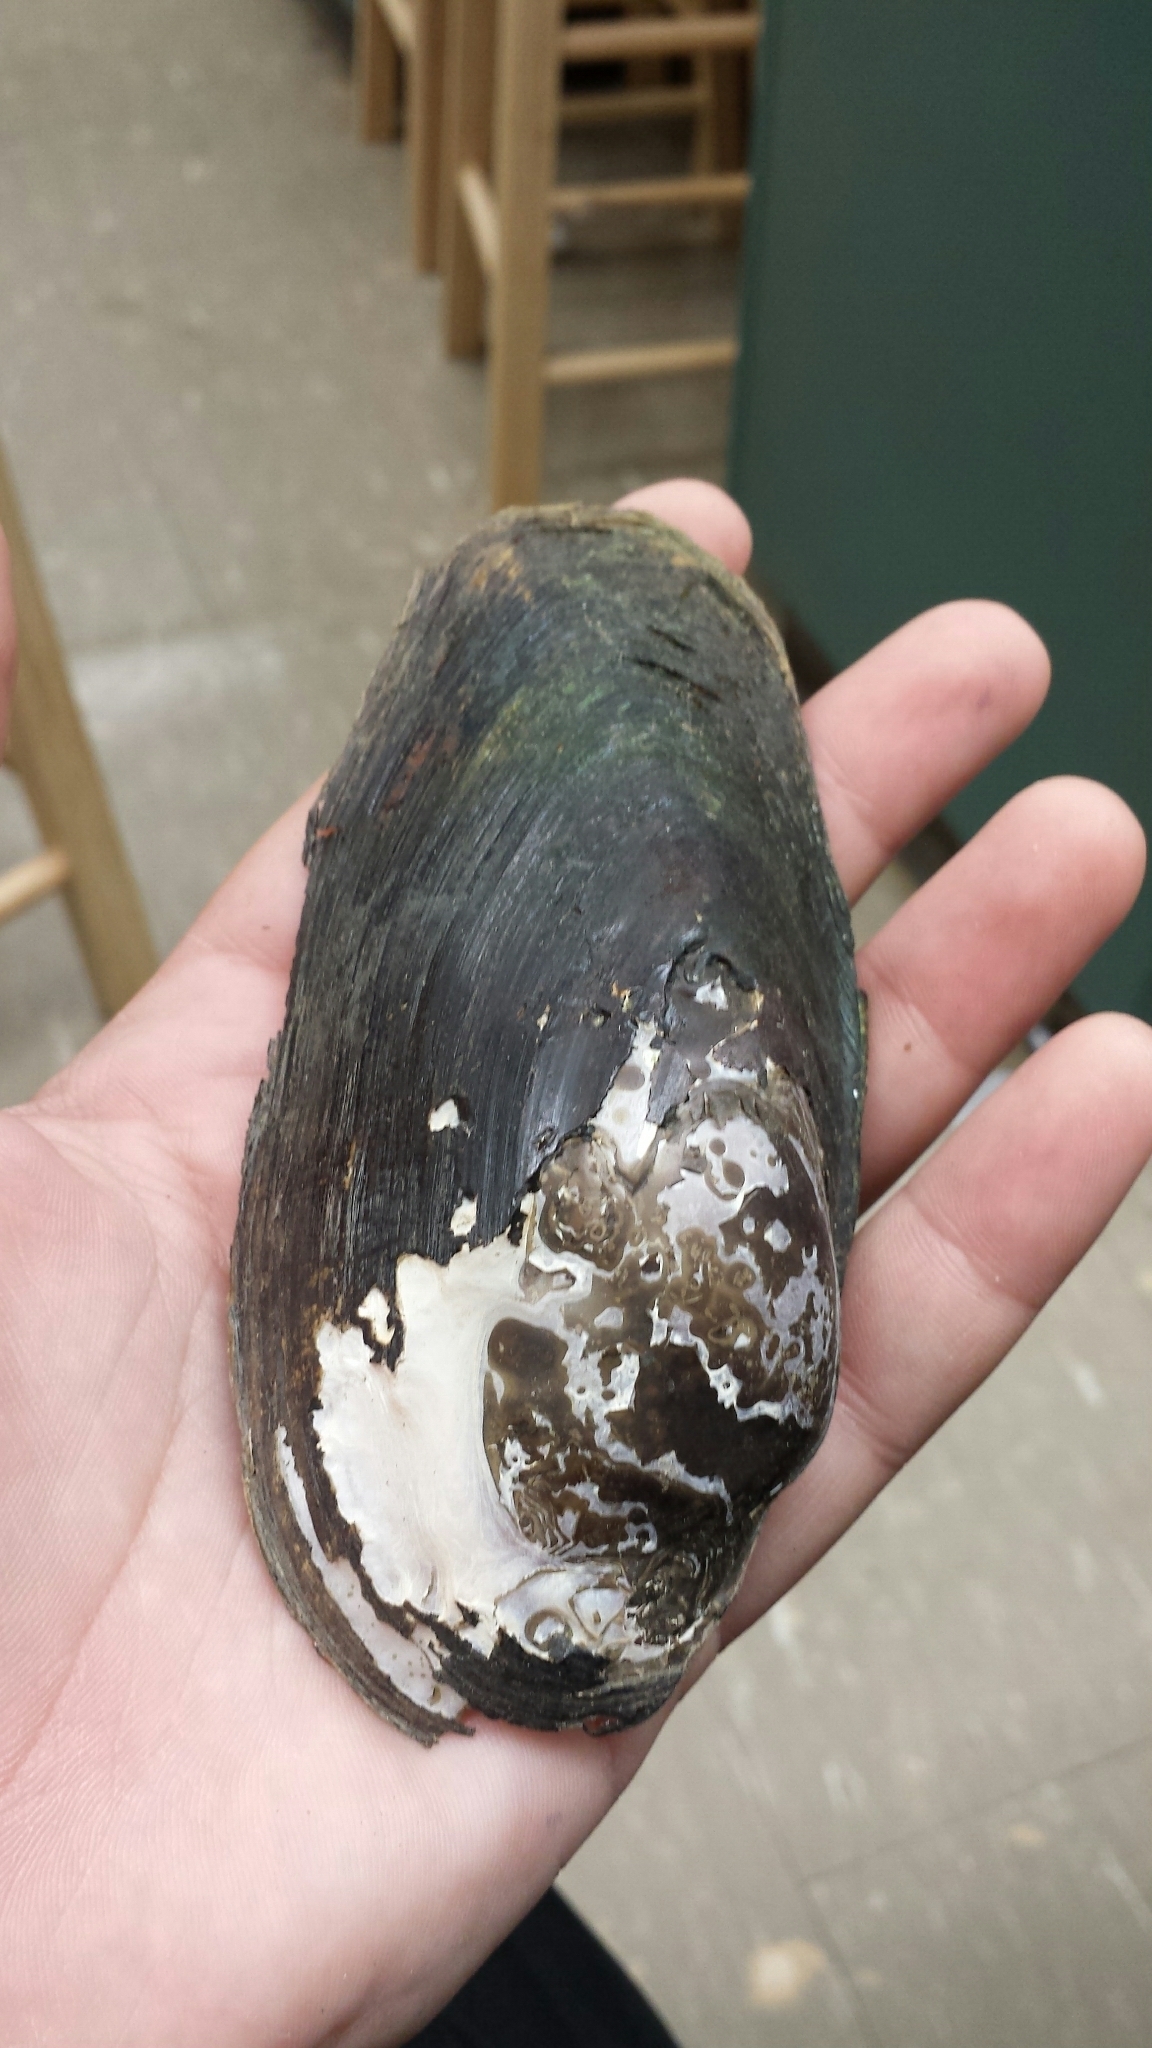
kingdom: Animalia
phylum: Mollusca
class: Bivalvia
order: Unionida
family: Unionidae
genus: Utterbackiana
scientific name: Utterbackiana implicata
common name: Alewife floater
